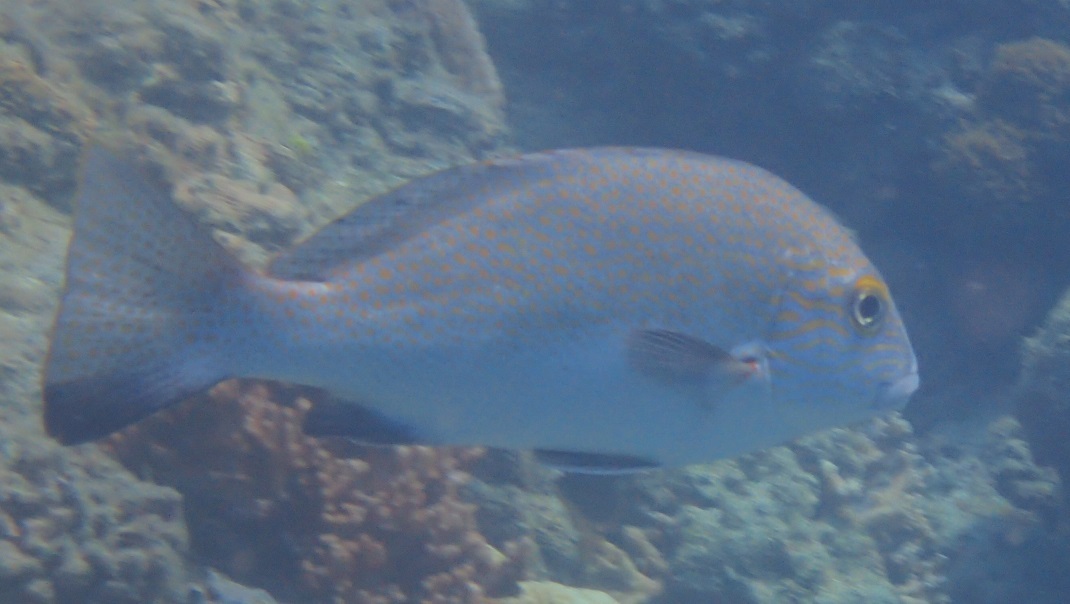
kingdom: Animalia
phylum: Chordata
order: Perciformes
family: Haemulidae
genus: Plectorhinchus
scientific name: Plectorhinchus flavomaculatus
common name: Netted sweetlips
